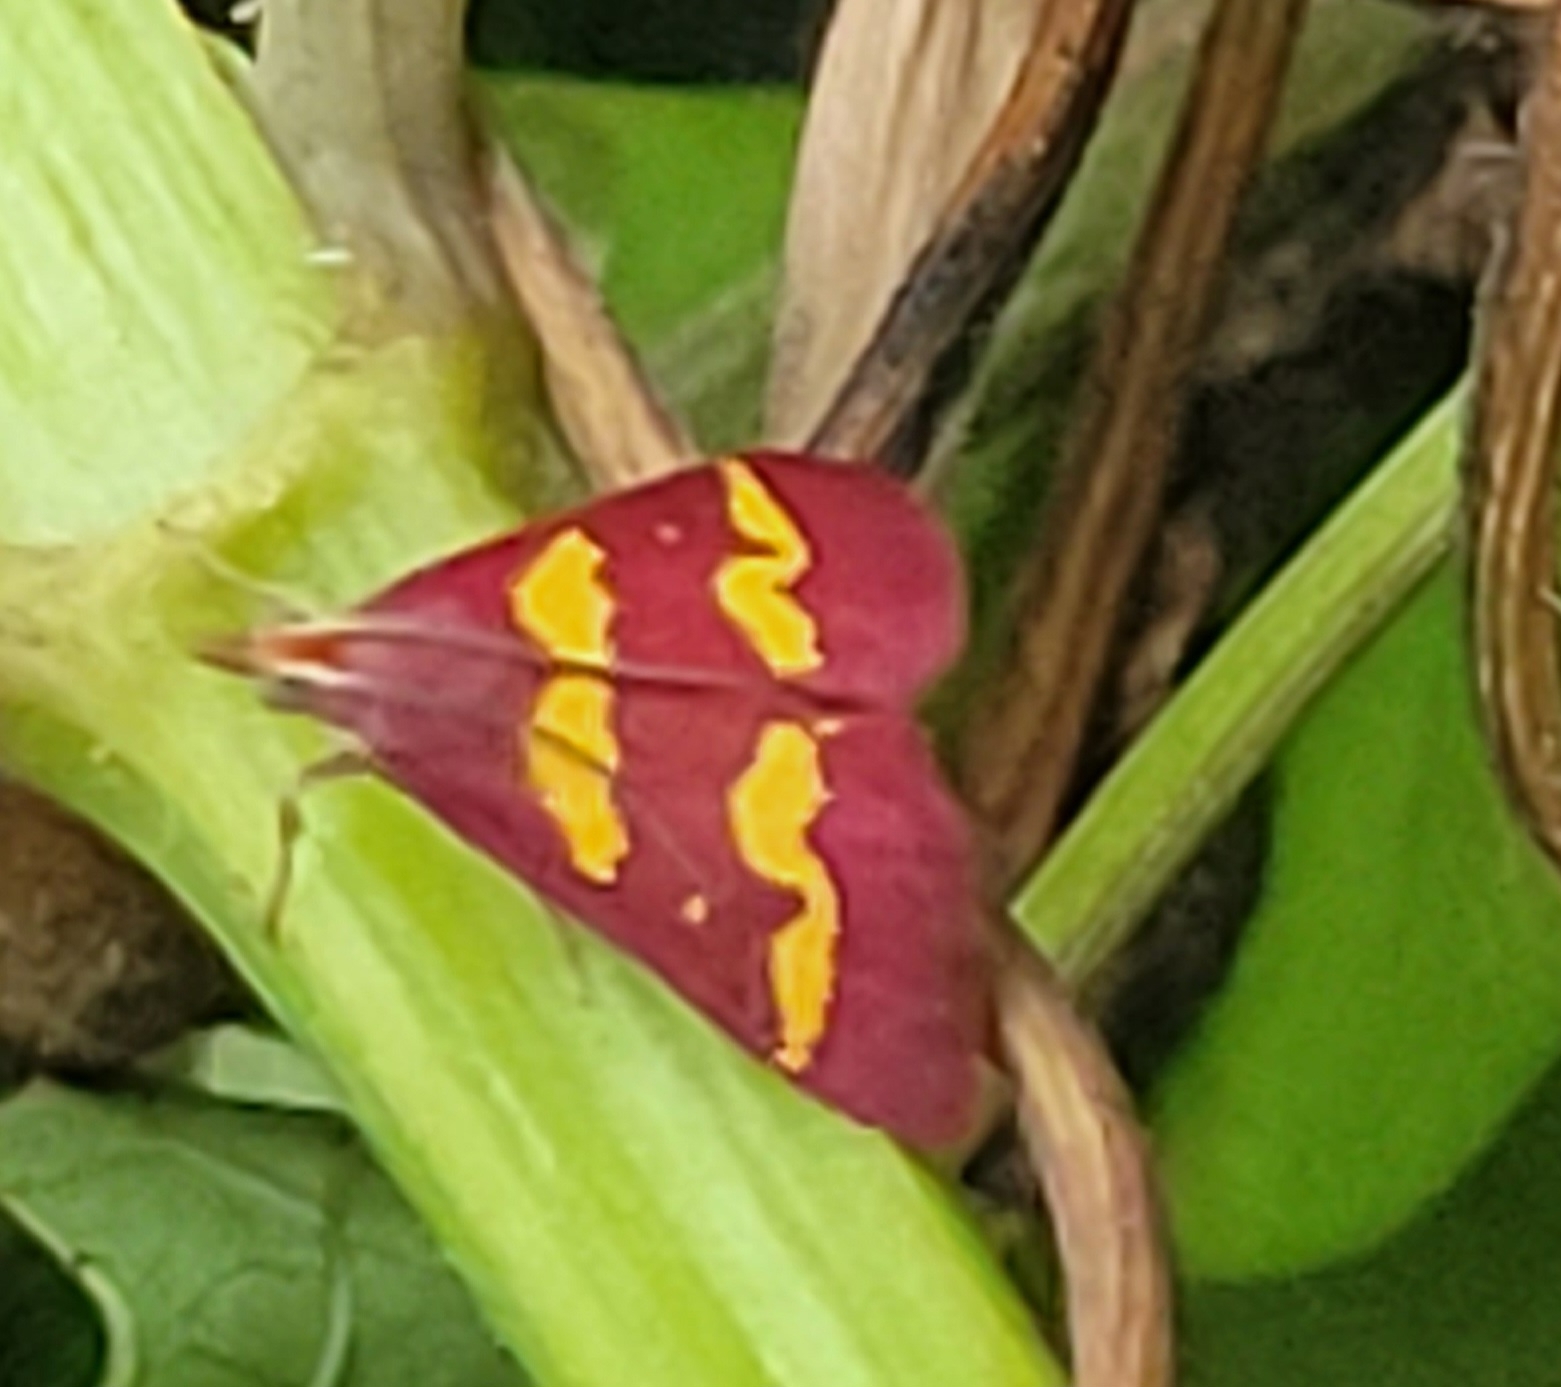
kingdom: Animalia
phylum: Arthropoda
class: Insecta
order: Lepidoptera
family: Crambidae
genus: Pyrausta
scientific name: Pyrausta tyralis
